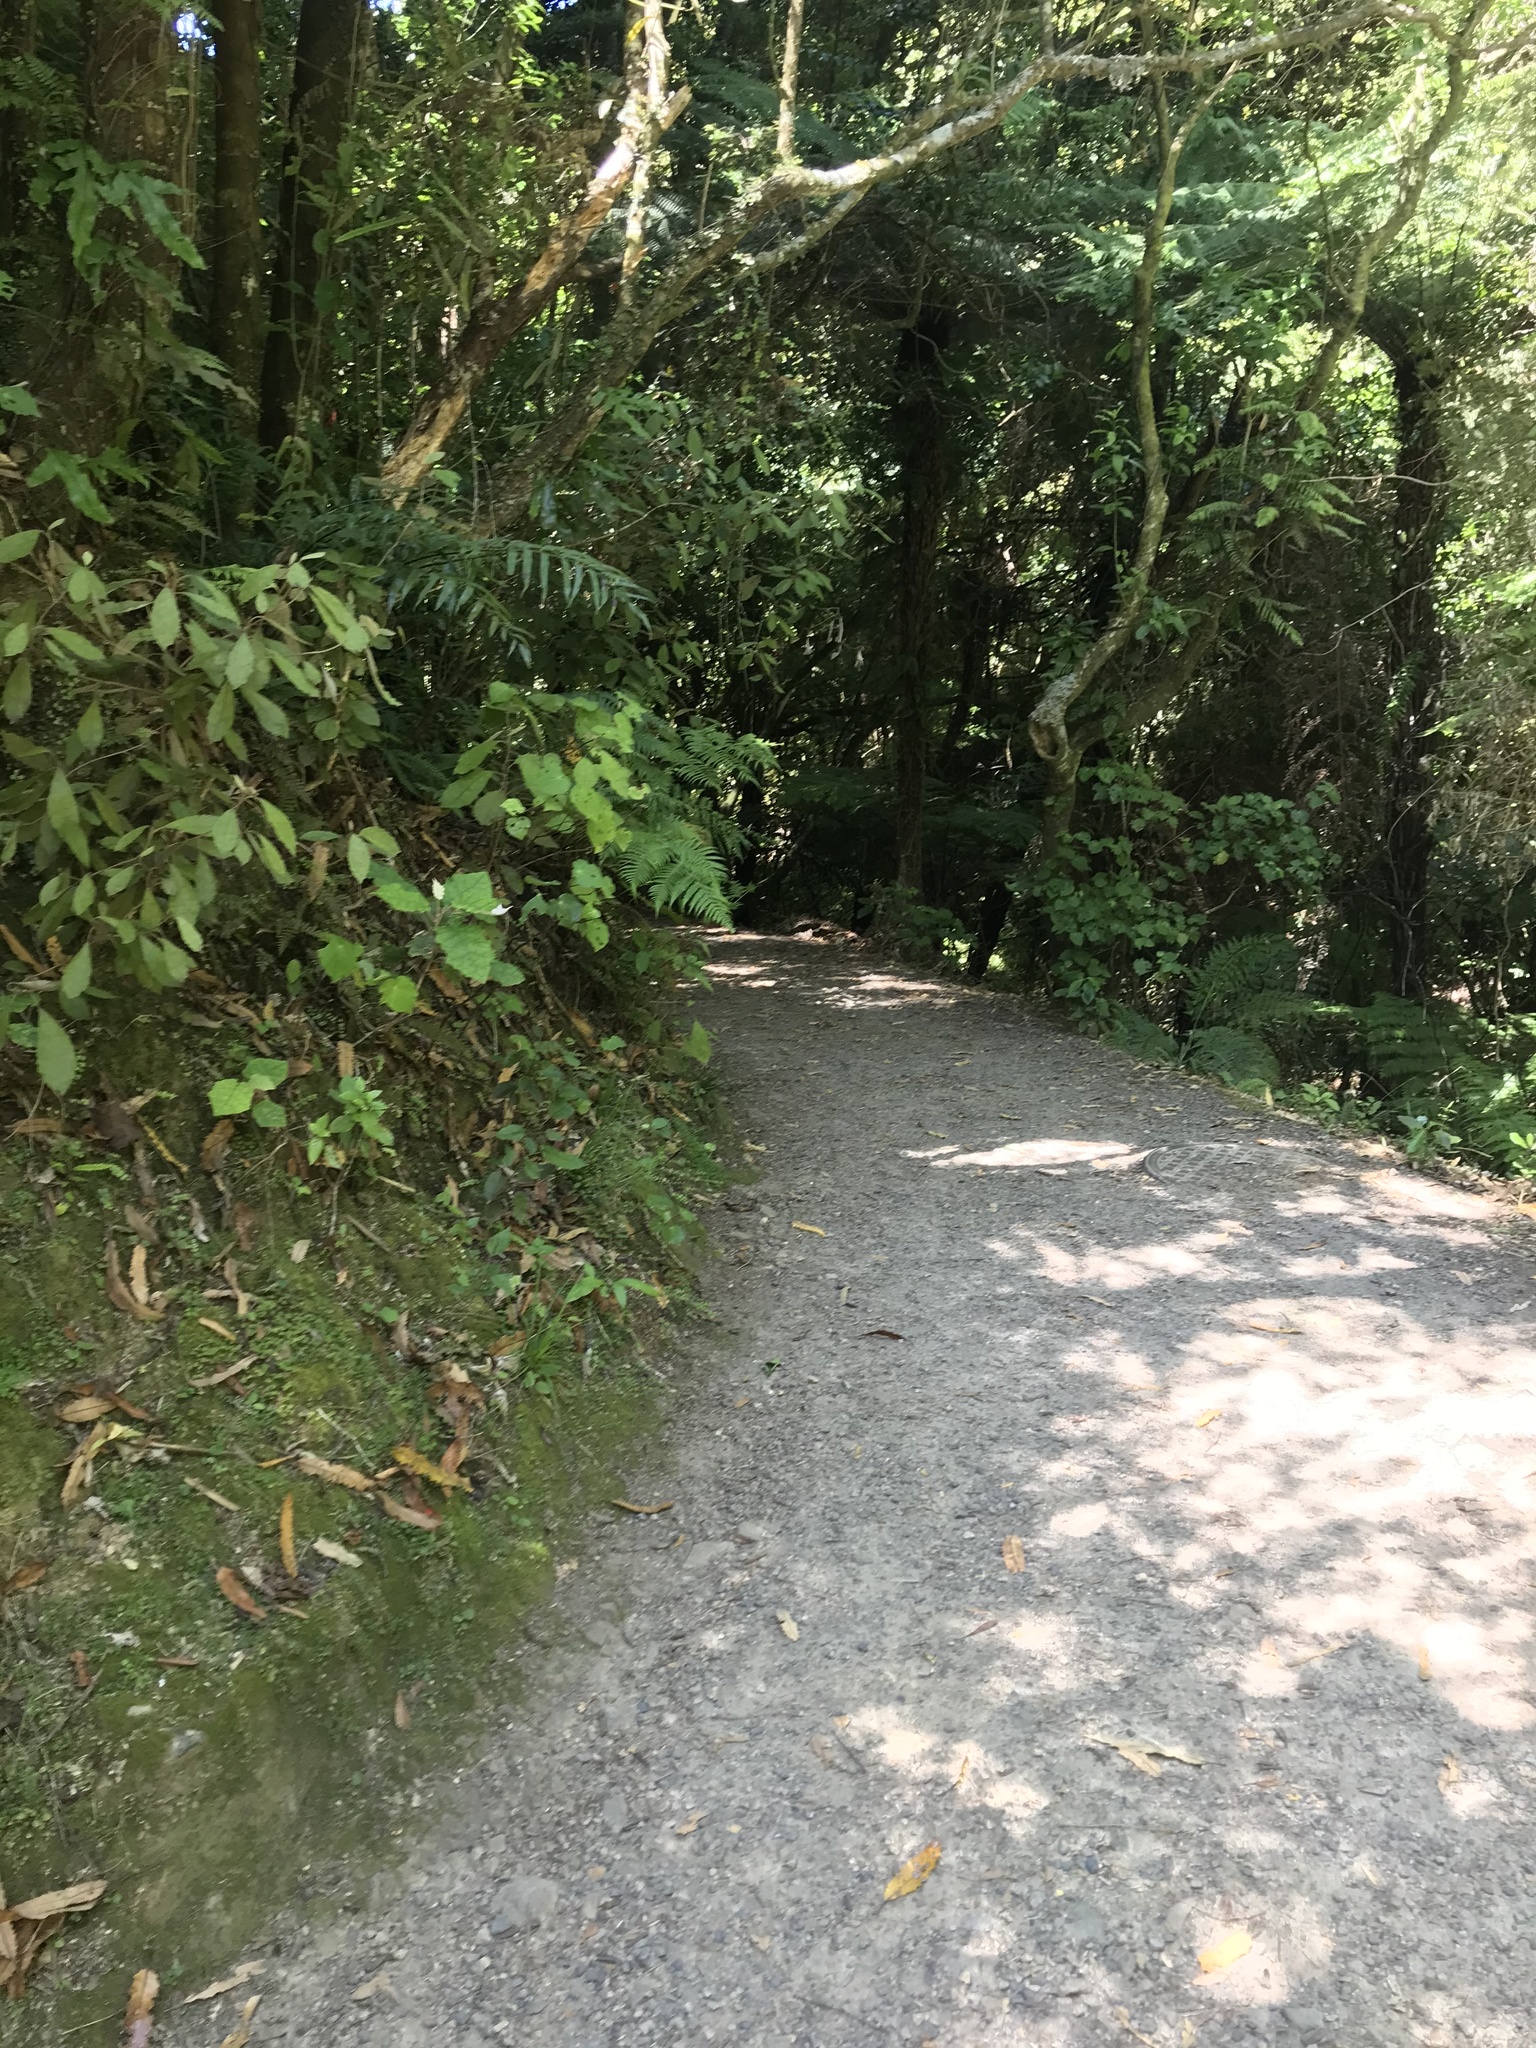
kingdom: Plantae
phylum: Tracheophyta
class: Lycopodiopsida
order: Selaginellales
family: Selaginellaceae
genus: Selaginella
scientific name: Selaginella kraussiana
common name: Krauss' spikemoss
